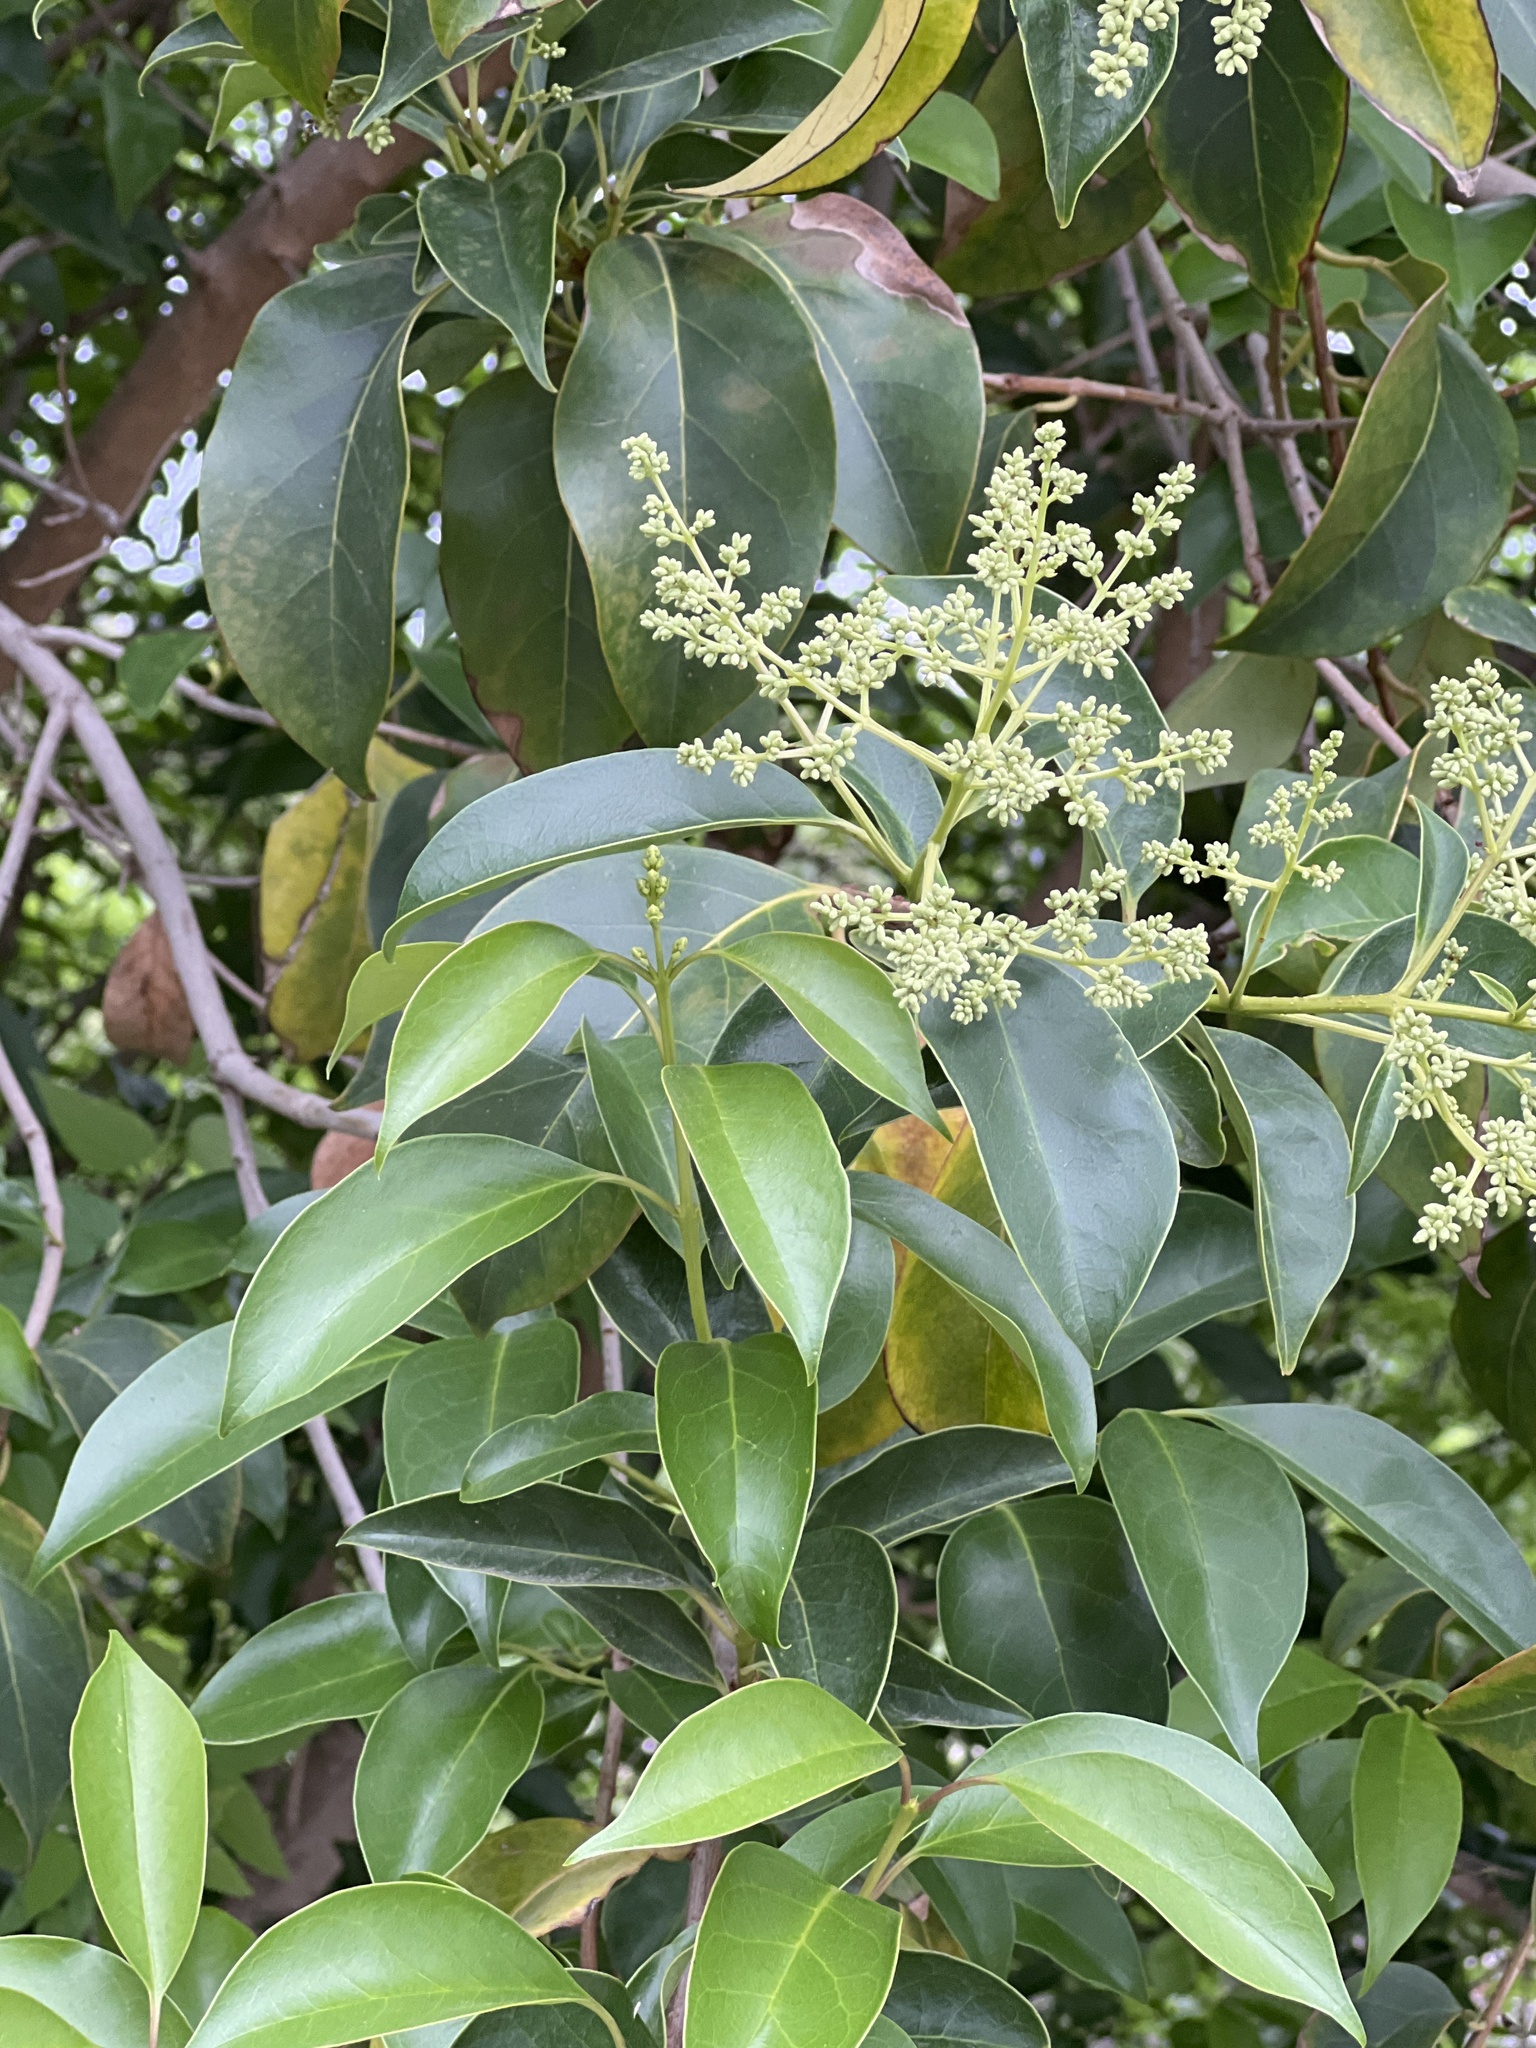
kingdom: Plantae
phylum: Tracheophyta
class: Magnoliopsida
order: Lamiales
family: Oleaceae
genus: Ligustrum
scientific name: Ligustrum lucidum
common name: Glossy privet
